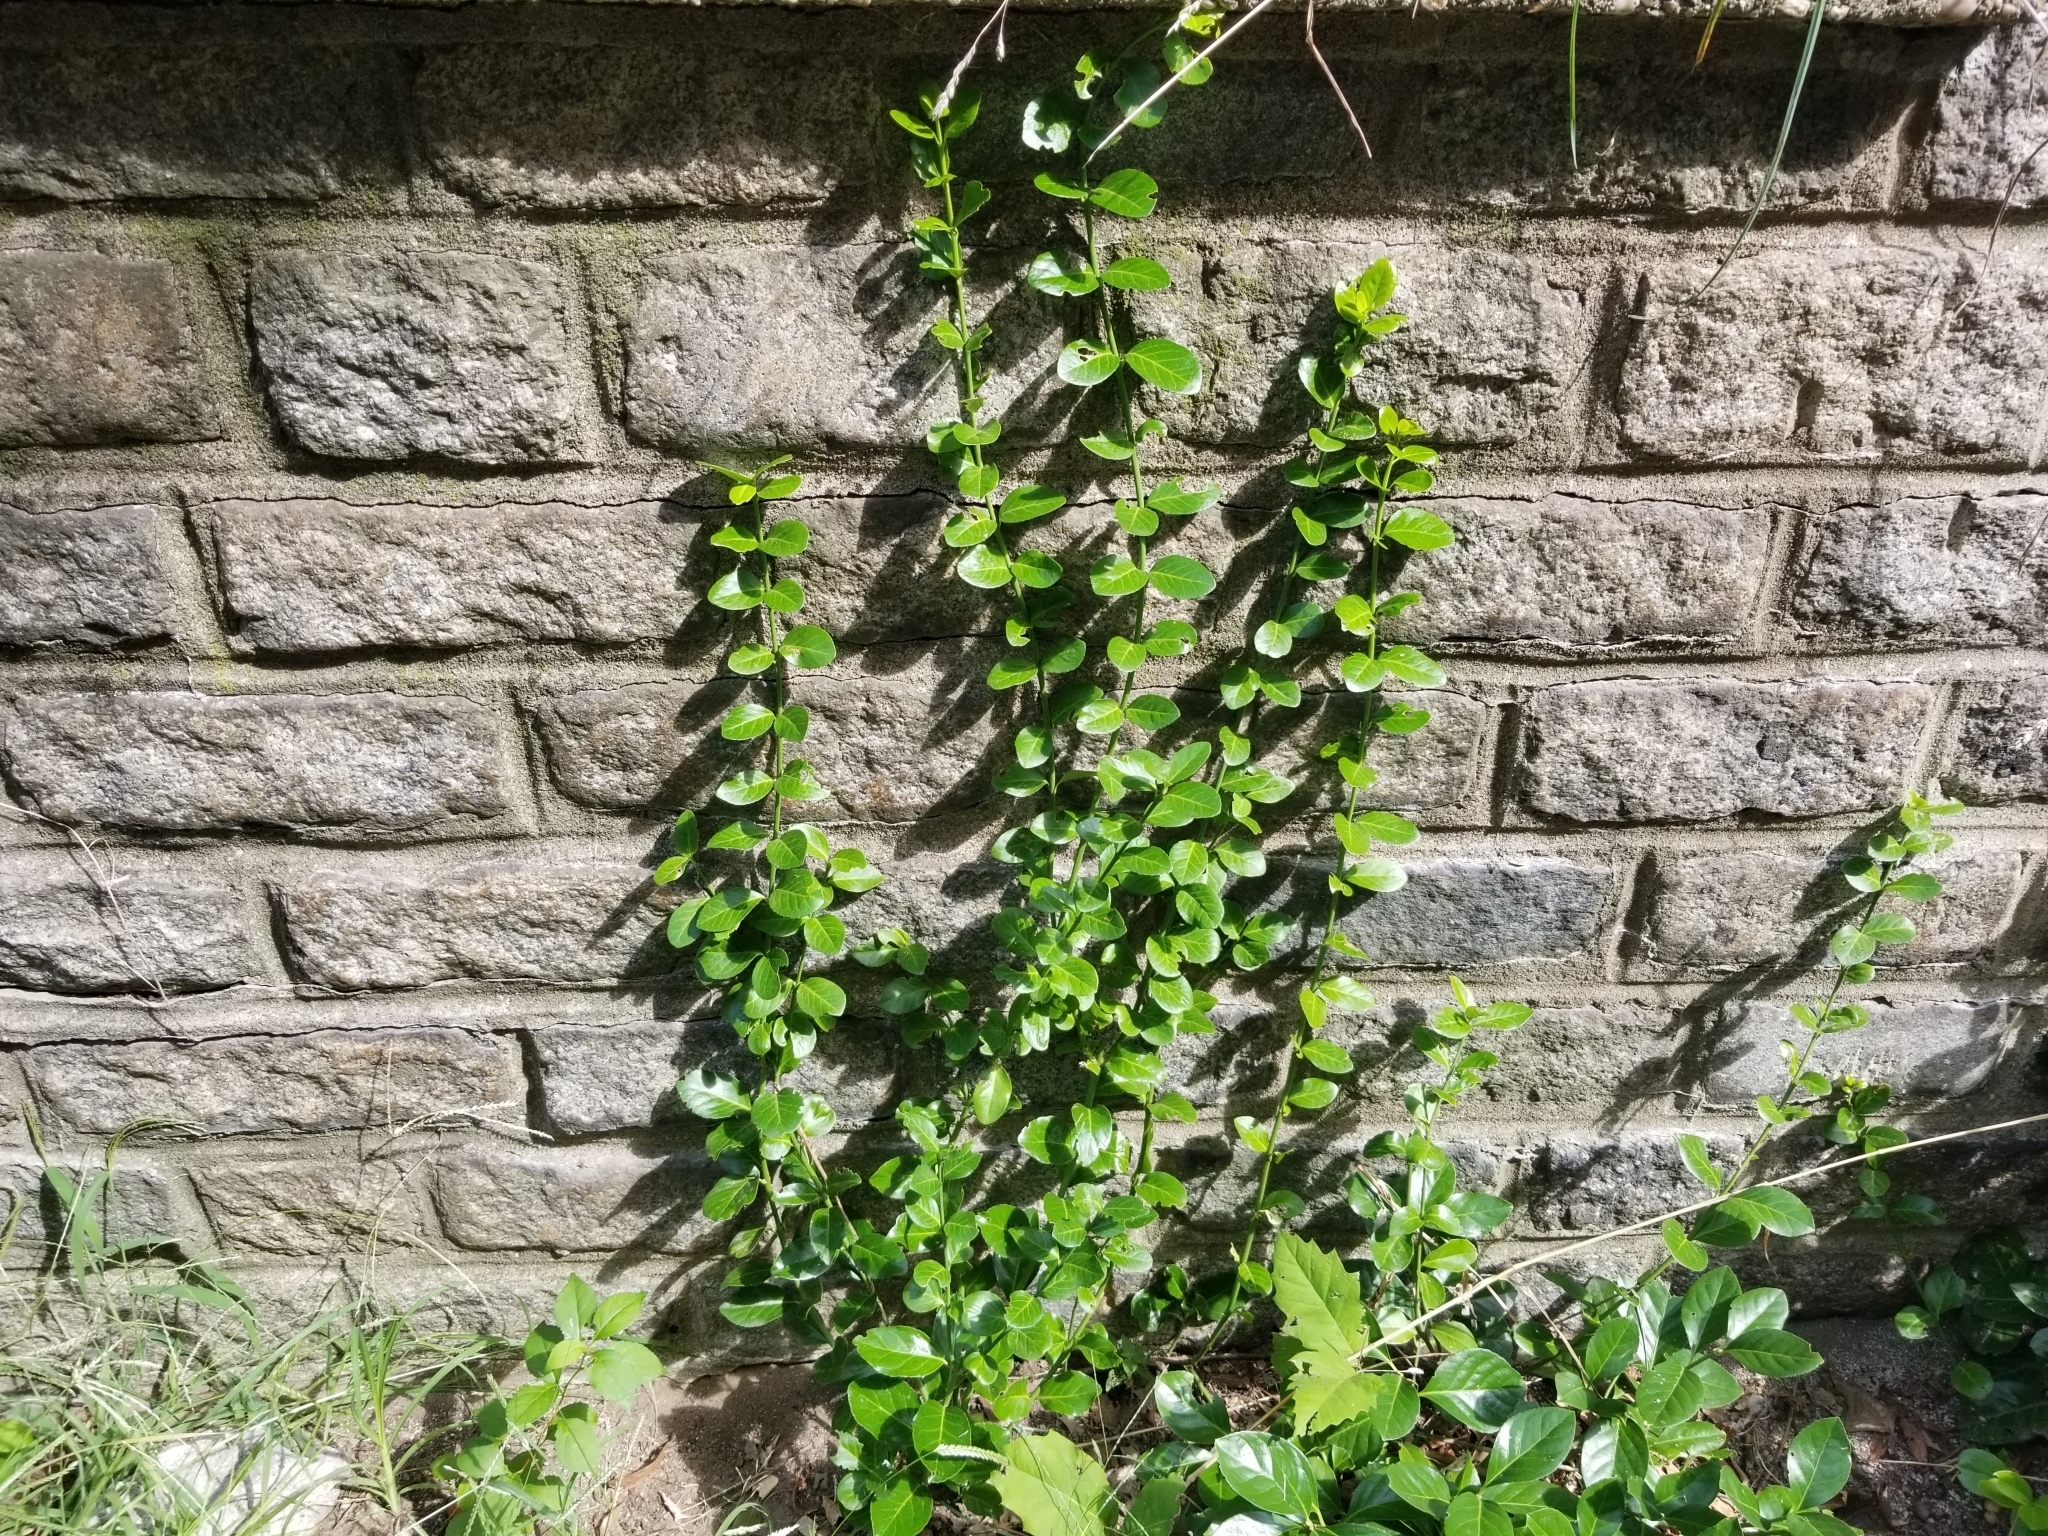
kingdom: Plantae
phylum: Tracheophyta
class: Magnoliopsida
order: Celastrales
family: Celastraceae
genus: Euonymus
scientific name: Euonymus fortunei
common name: Climbing euonymus
